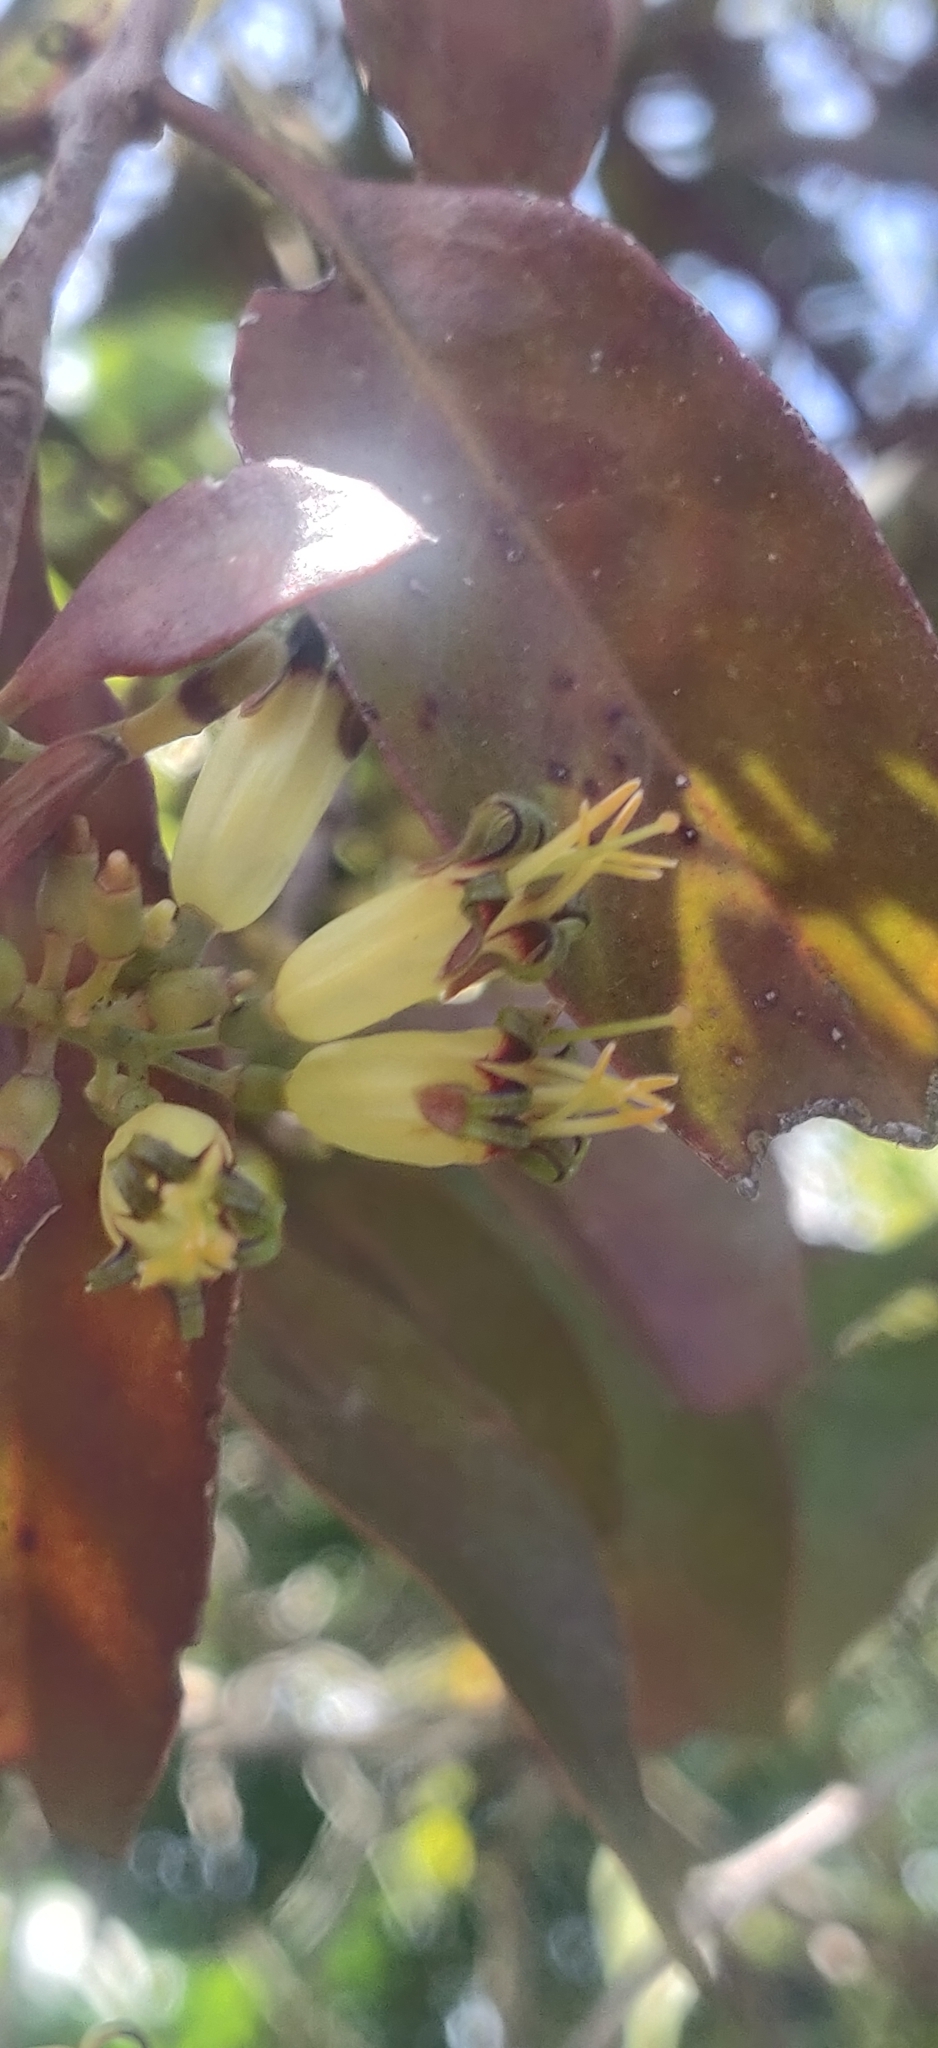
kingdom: Plantae
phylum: Tracheophyta
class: Magnoliopsida
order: Santalales
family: Loranthaceae
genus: Macrosolen
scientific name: Macrosolen cochinchinensis
